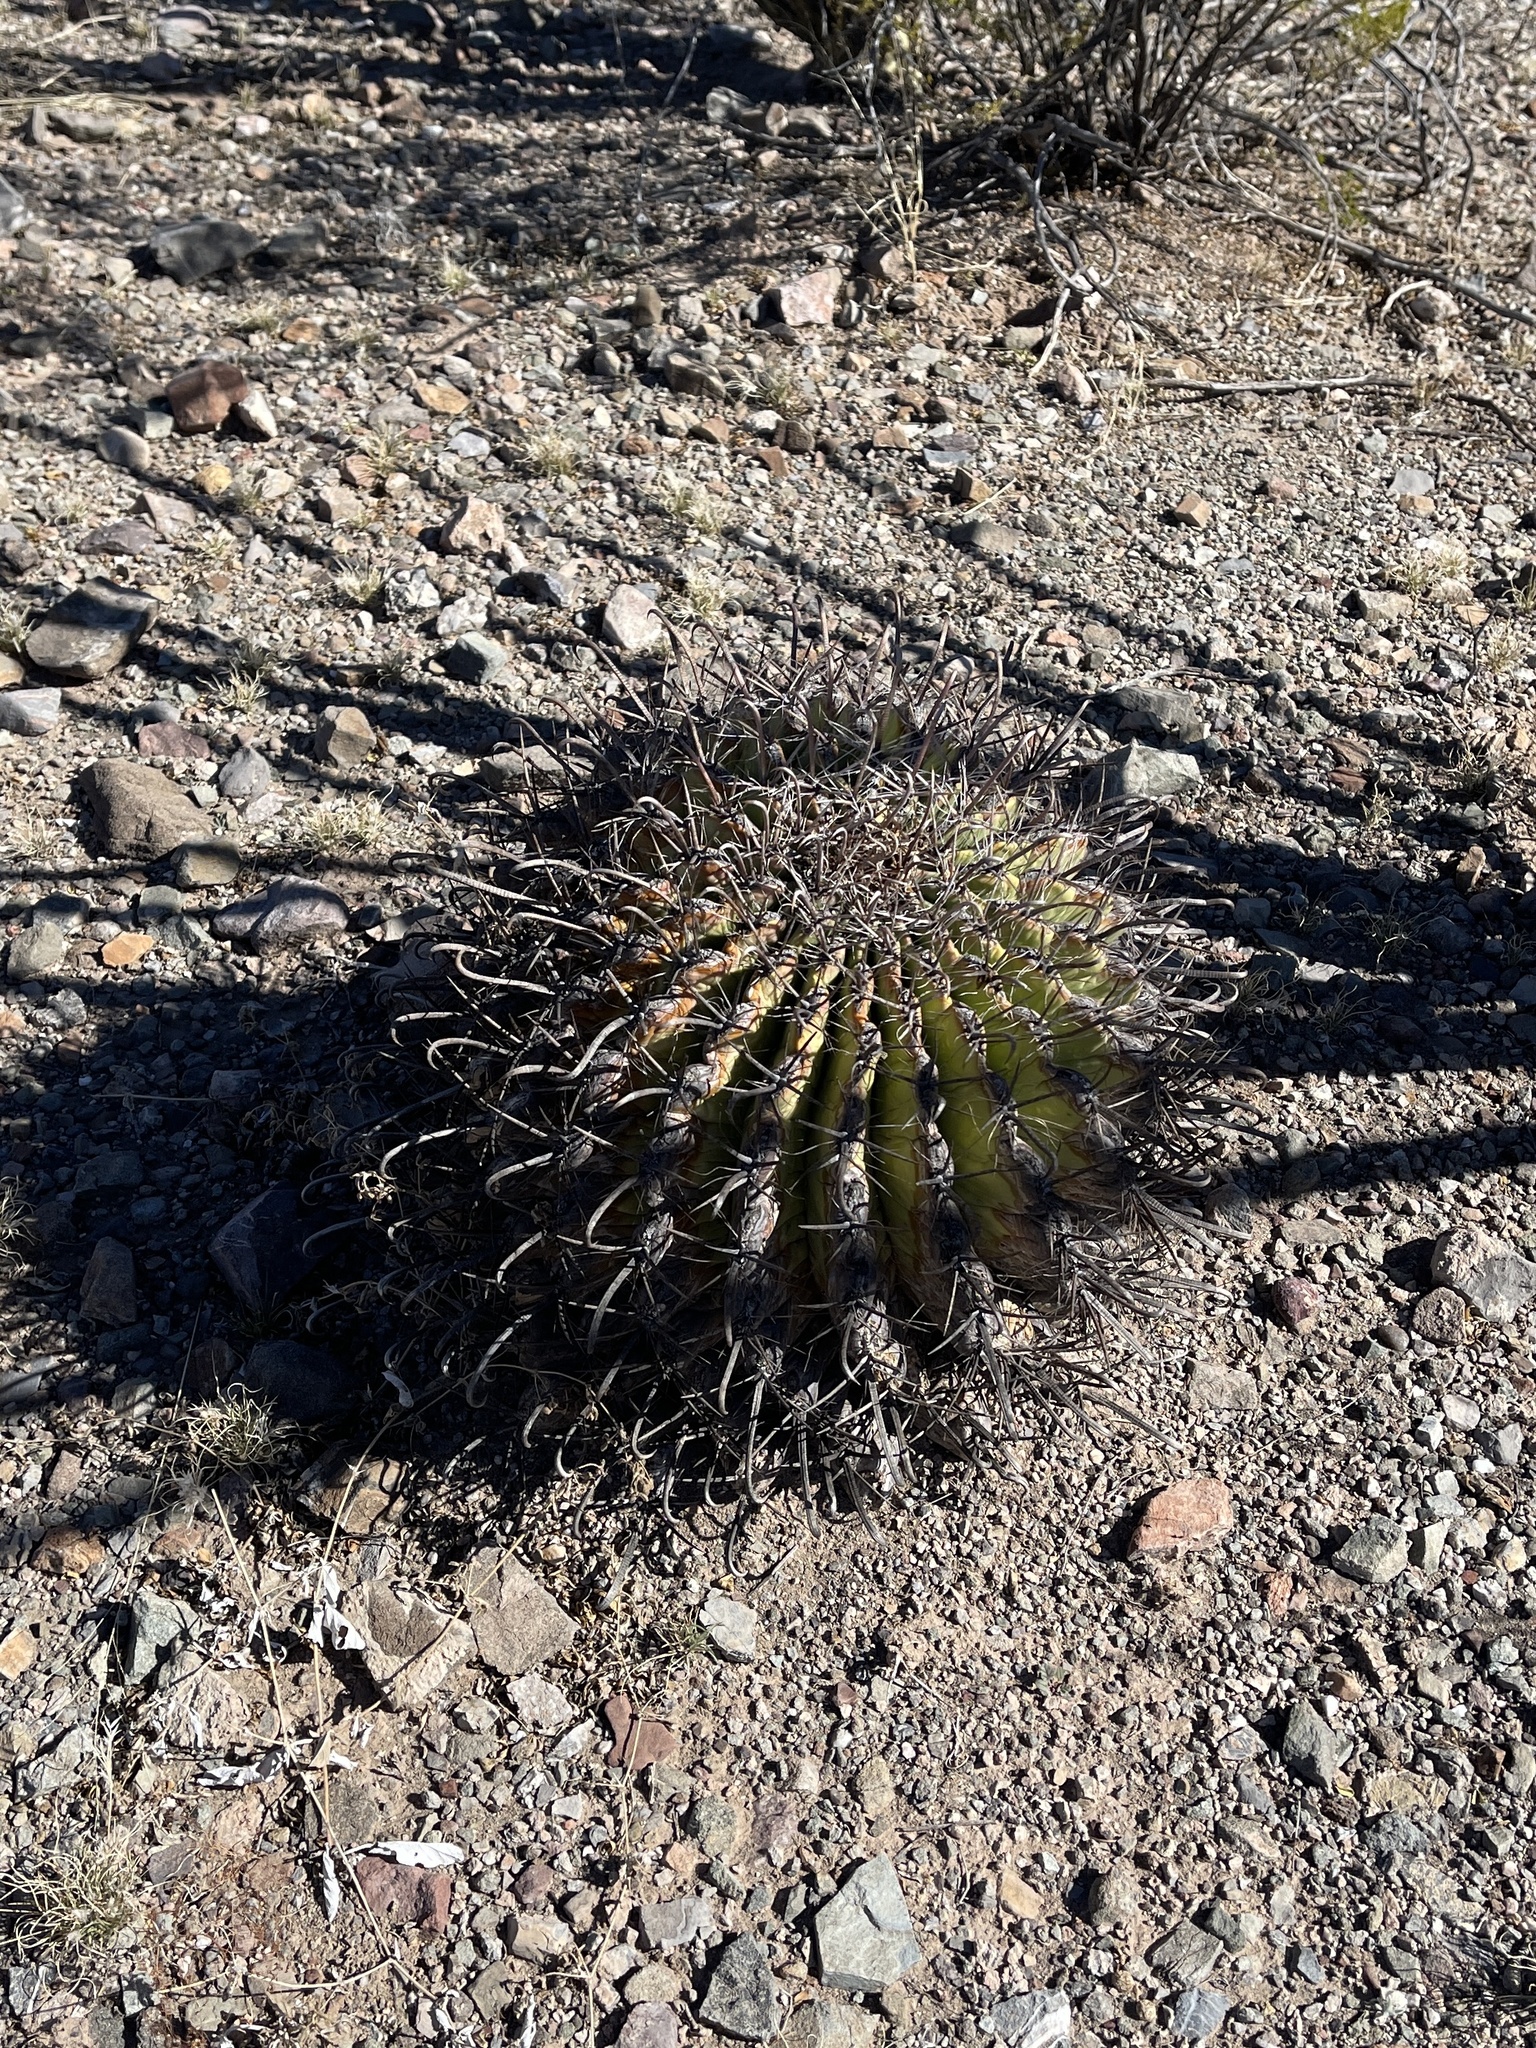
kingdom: Plantae
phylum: Tracheophyta
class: Magnoliopsida
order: Caryophyllales
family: Cactaceae
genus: Ferocactus
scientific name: Ferocactus wislizeni
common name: Candy barrel cactus
